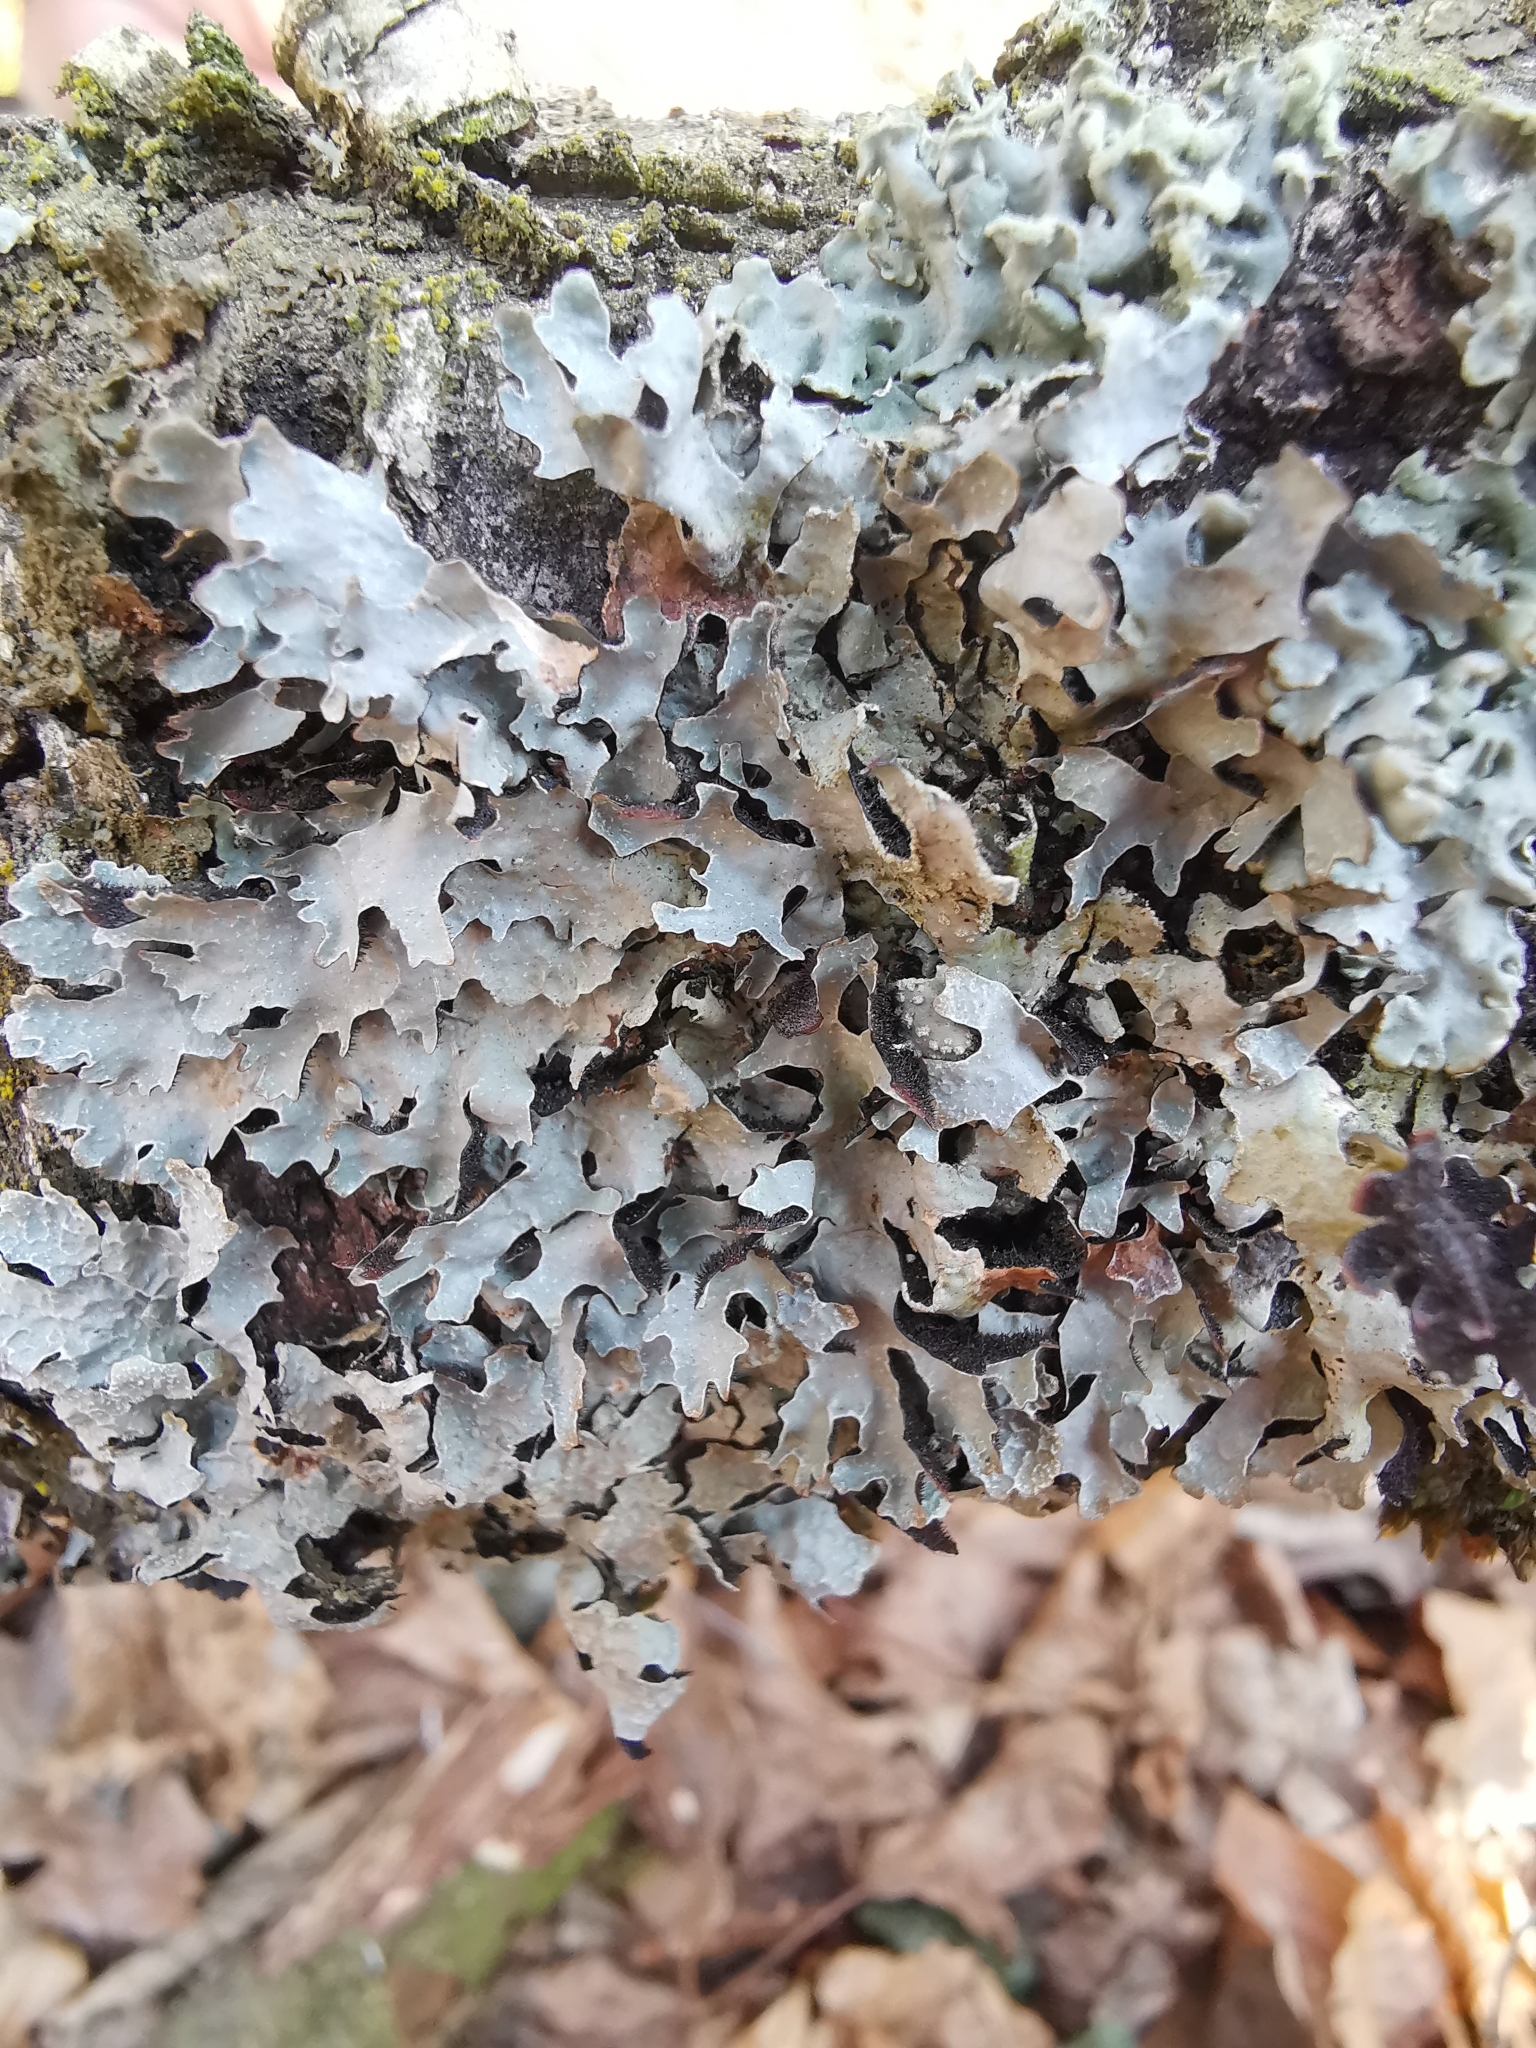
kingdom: Fungi
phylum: Ascomycota
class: Lecanoromycetes
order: Lecanorales
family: Parmeliaceae
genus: Parmelia
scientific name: Parmelia sulcata
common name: Netted shield lichen
